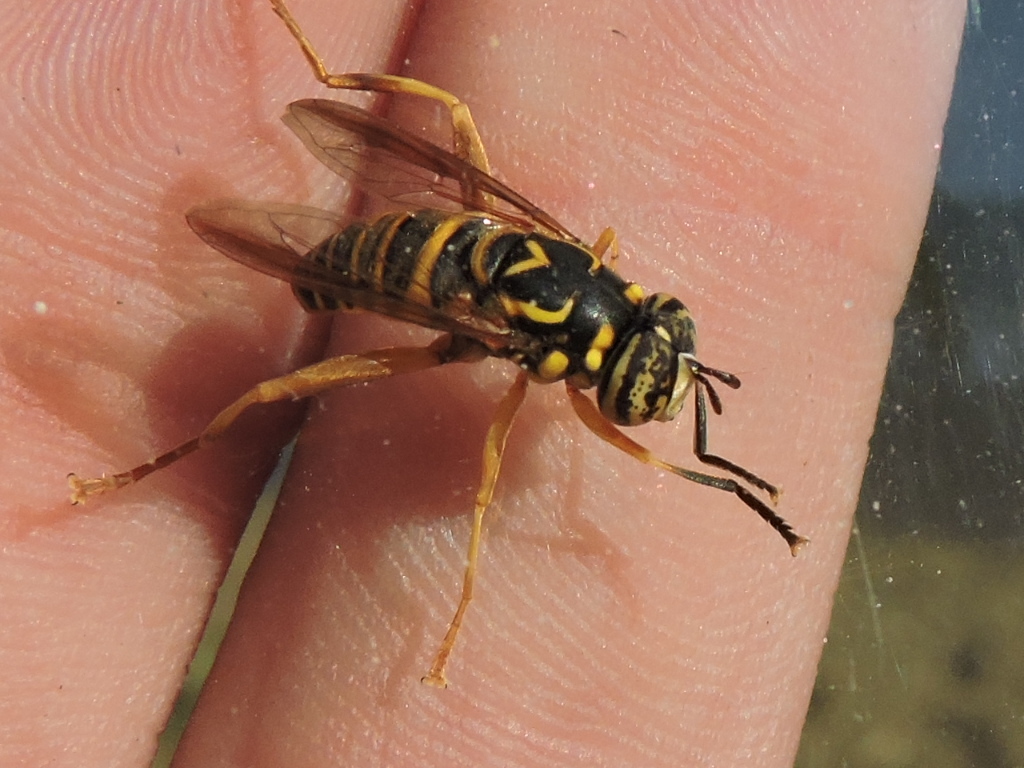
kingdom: Animalia
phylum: Arthropoda
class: Insecta
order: Diptera
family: Syrphidae
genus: Spilomyia
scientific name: Spilomyia longicornis
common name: Eastern hornet fly
